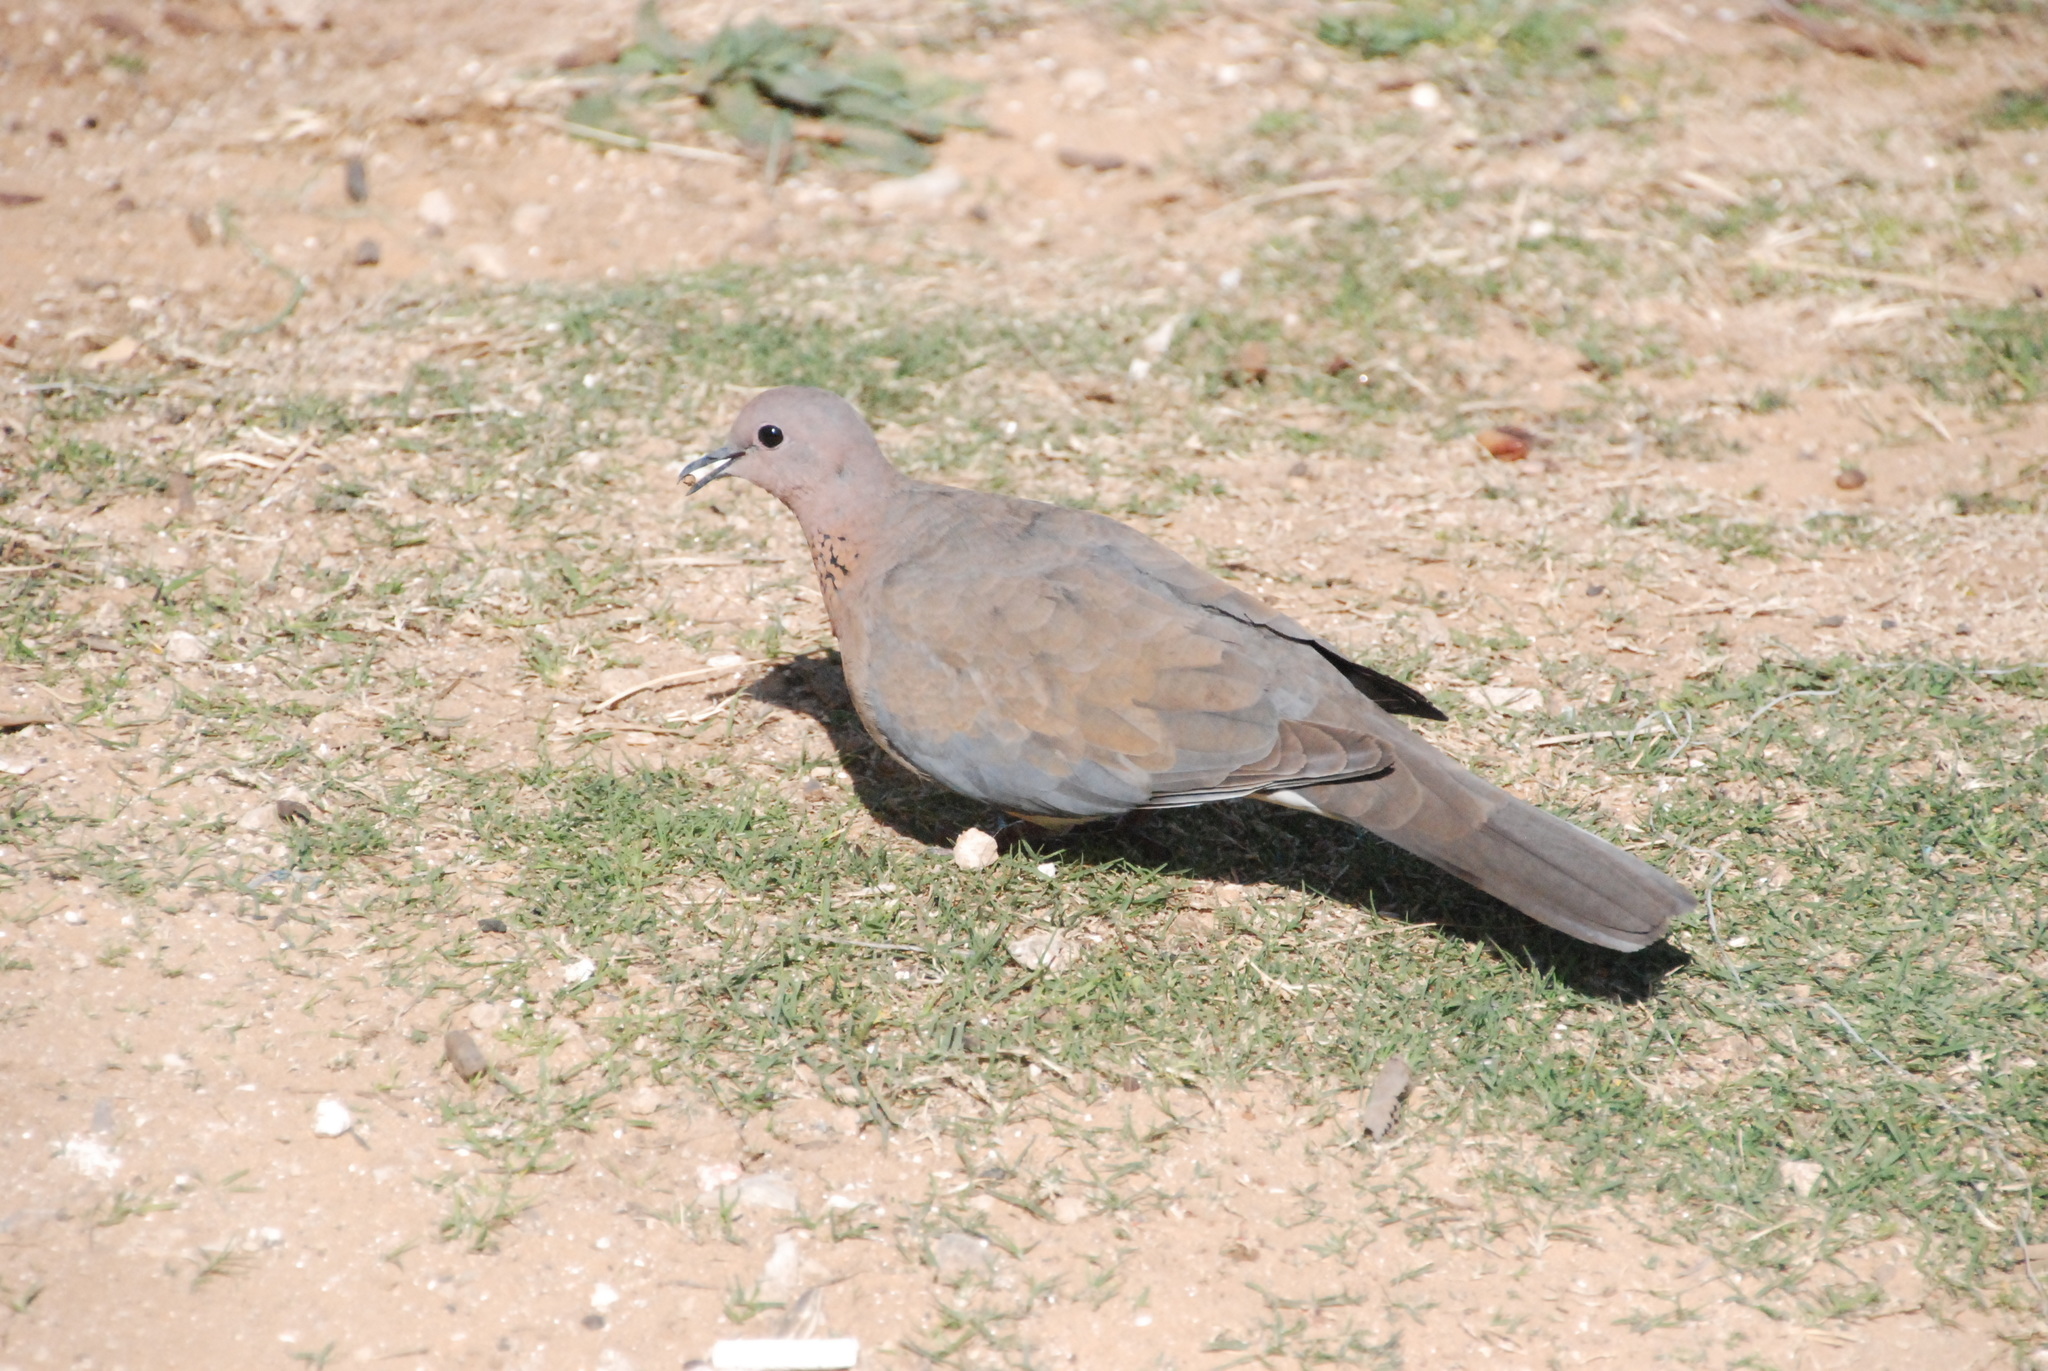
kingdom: Animalia
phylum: Chordata
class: Aves
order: Columbiformes
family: Columbidae
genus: Spilopelia
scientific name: Spilopelia senegalensis
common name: Laughing dove
